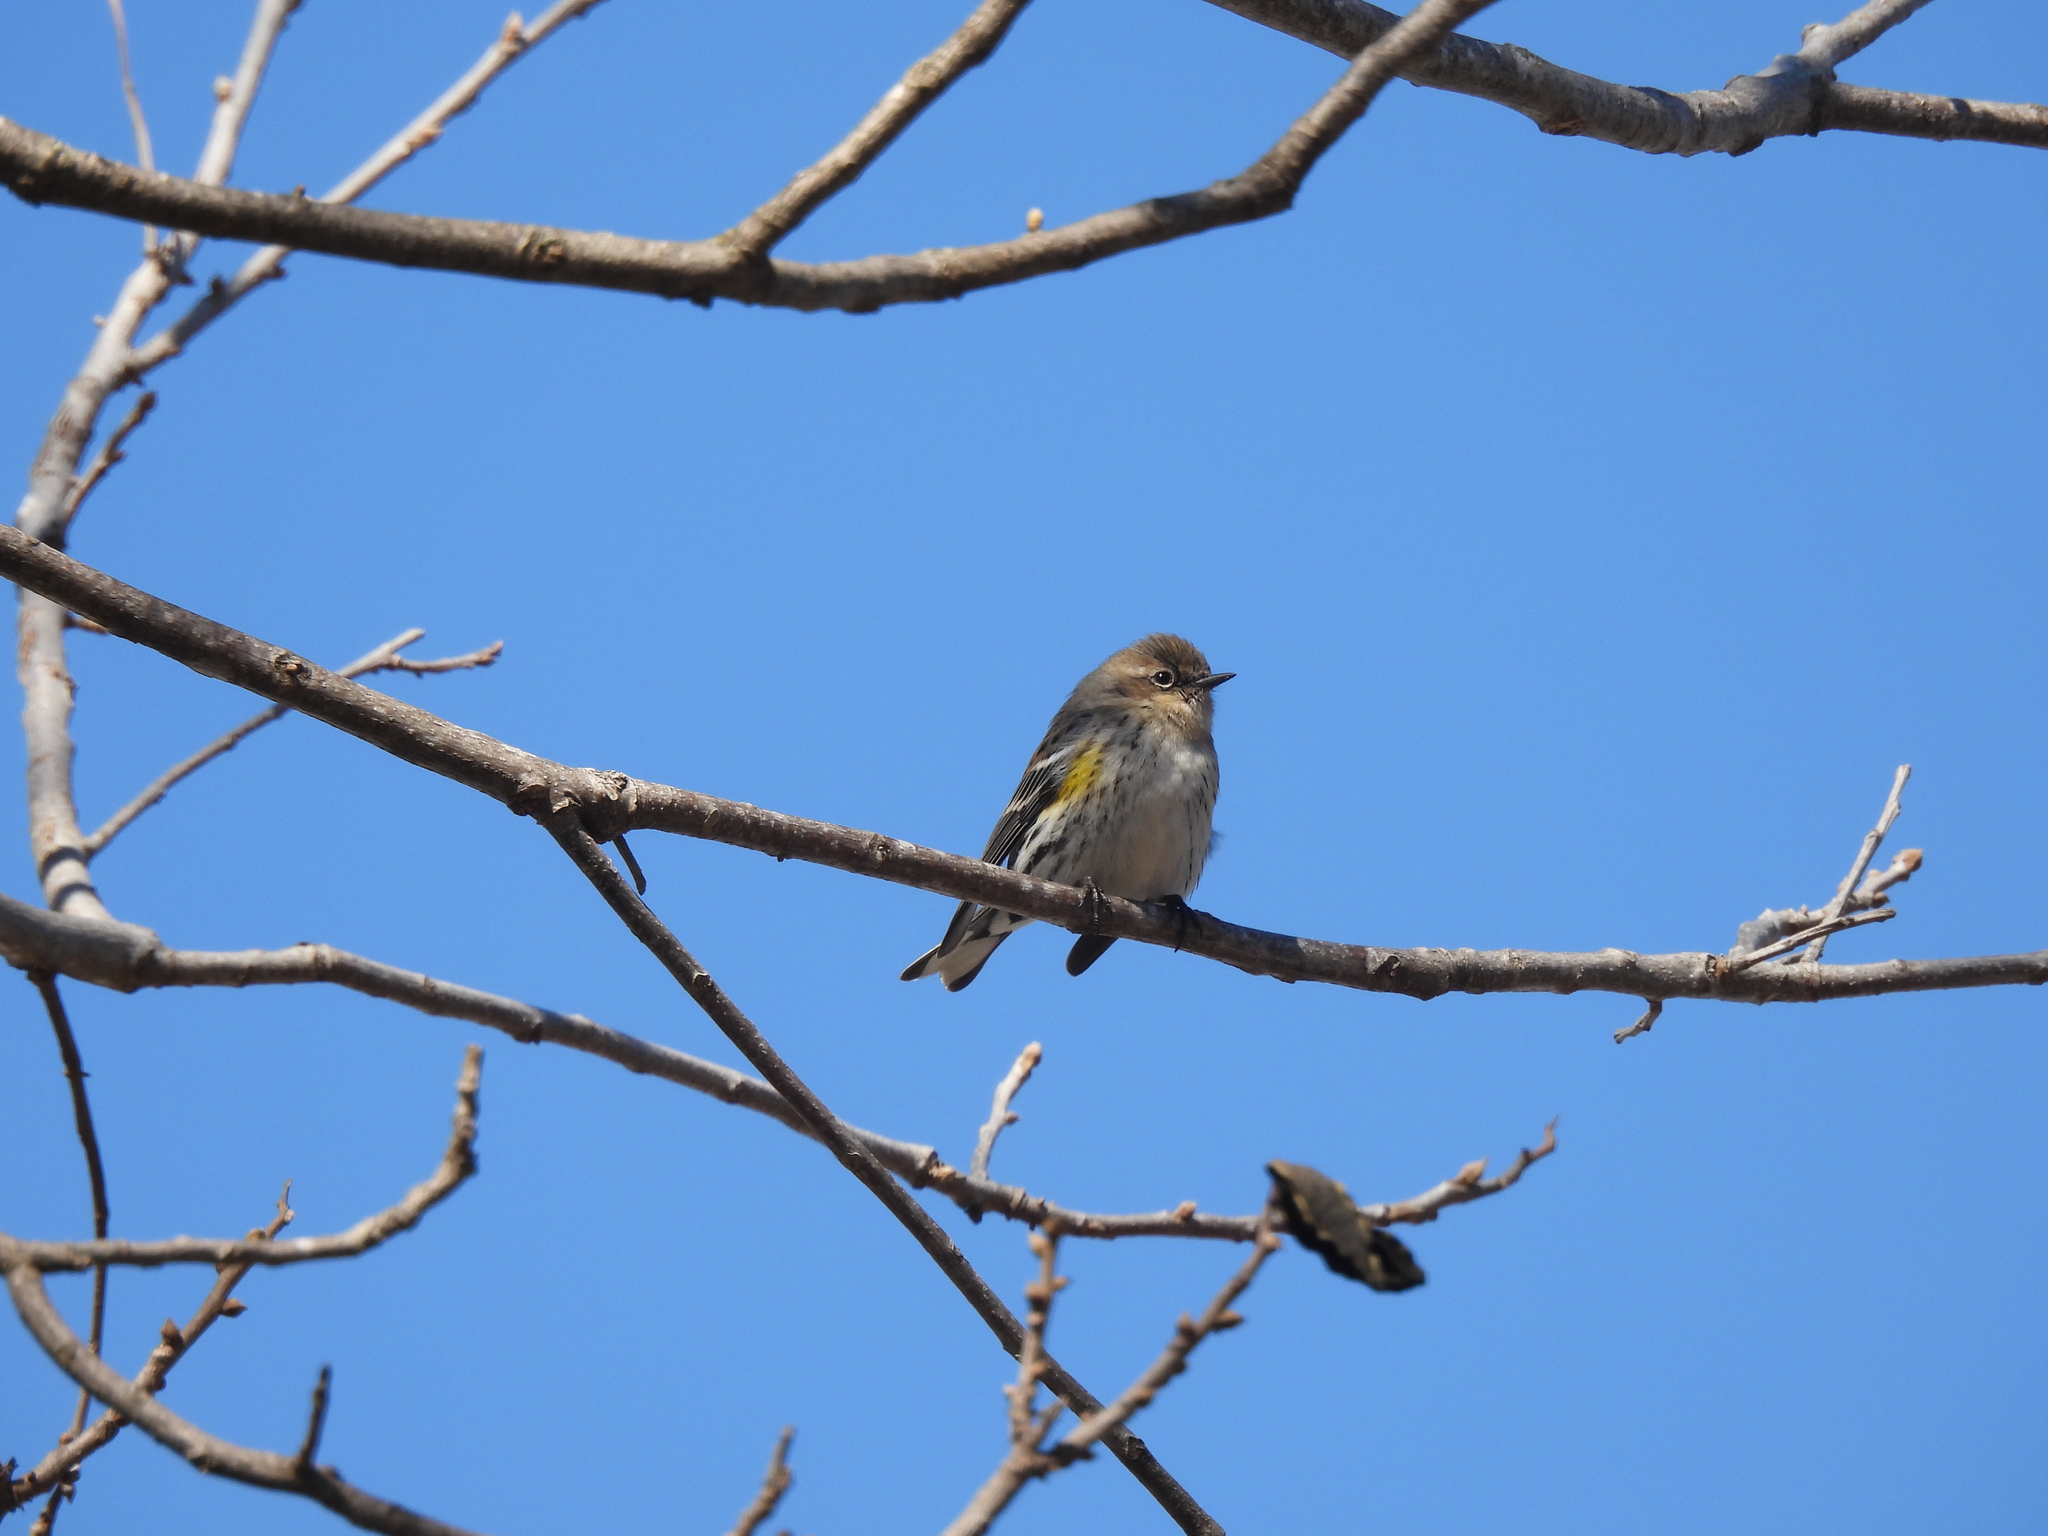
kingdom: Animalia
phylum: Chordata
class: Aves
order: Passeriformes
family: Parulidae
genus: Setophaga
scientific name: Setophaga coronata
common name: Myrtle warbler
